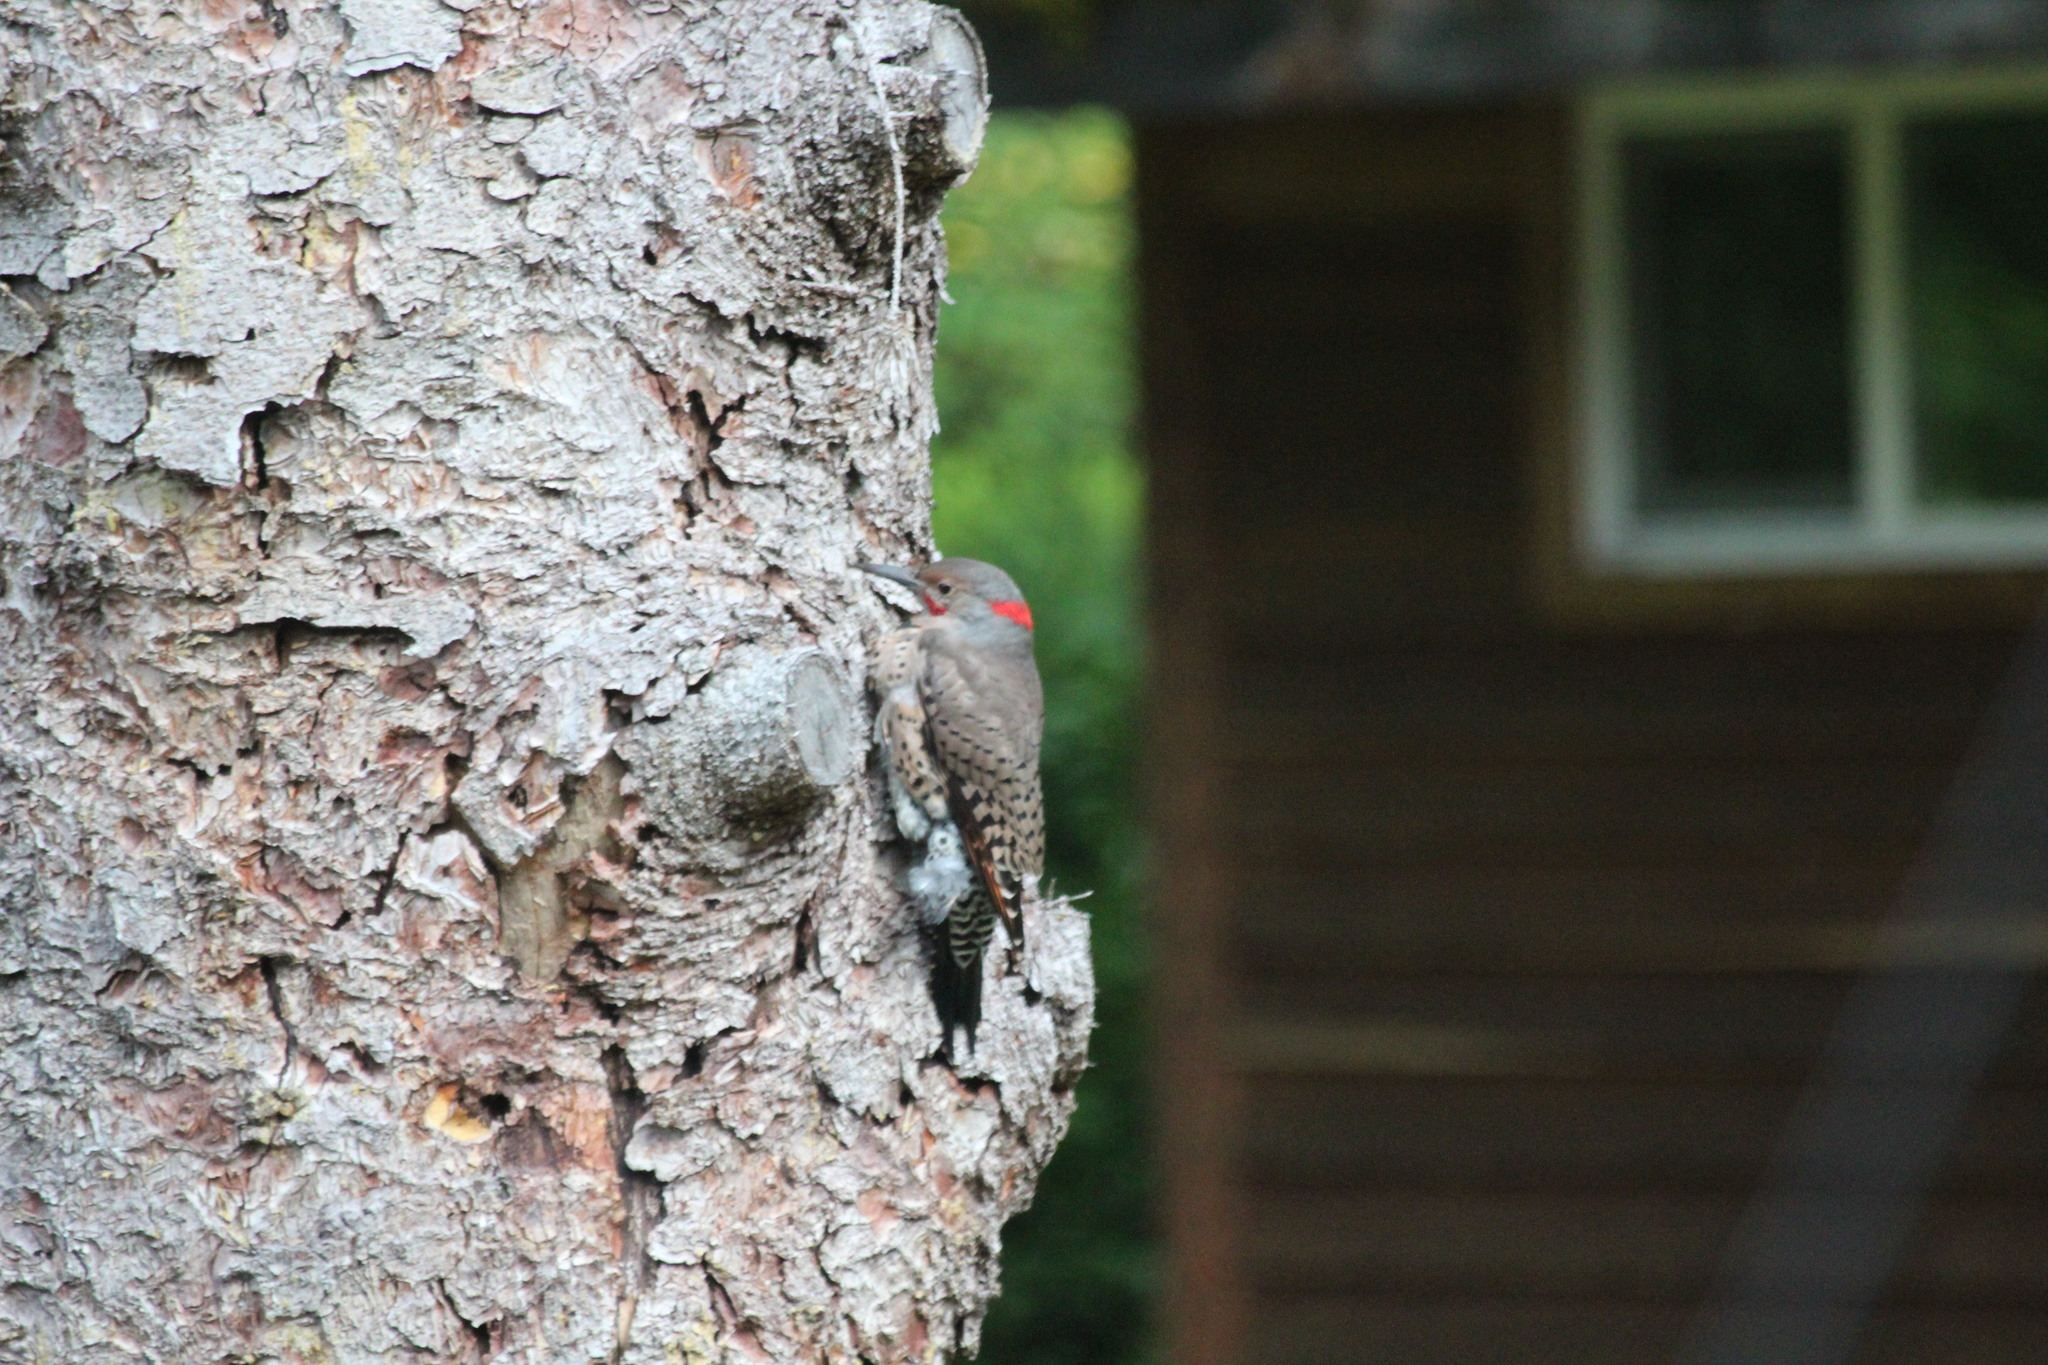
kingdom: Animalia
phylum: Chordata
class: Aves
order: Piciformes
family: Picidae
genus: Colaptes
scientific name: Colaptes auratus
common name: Northern flicker
